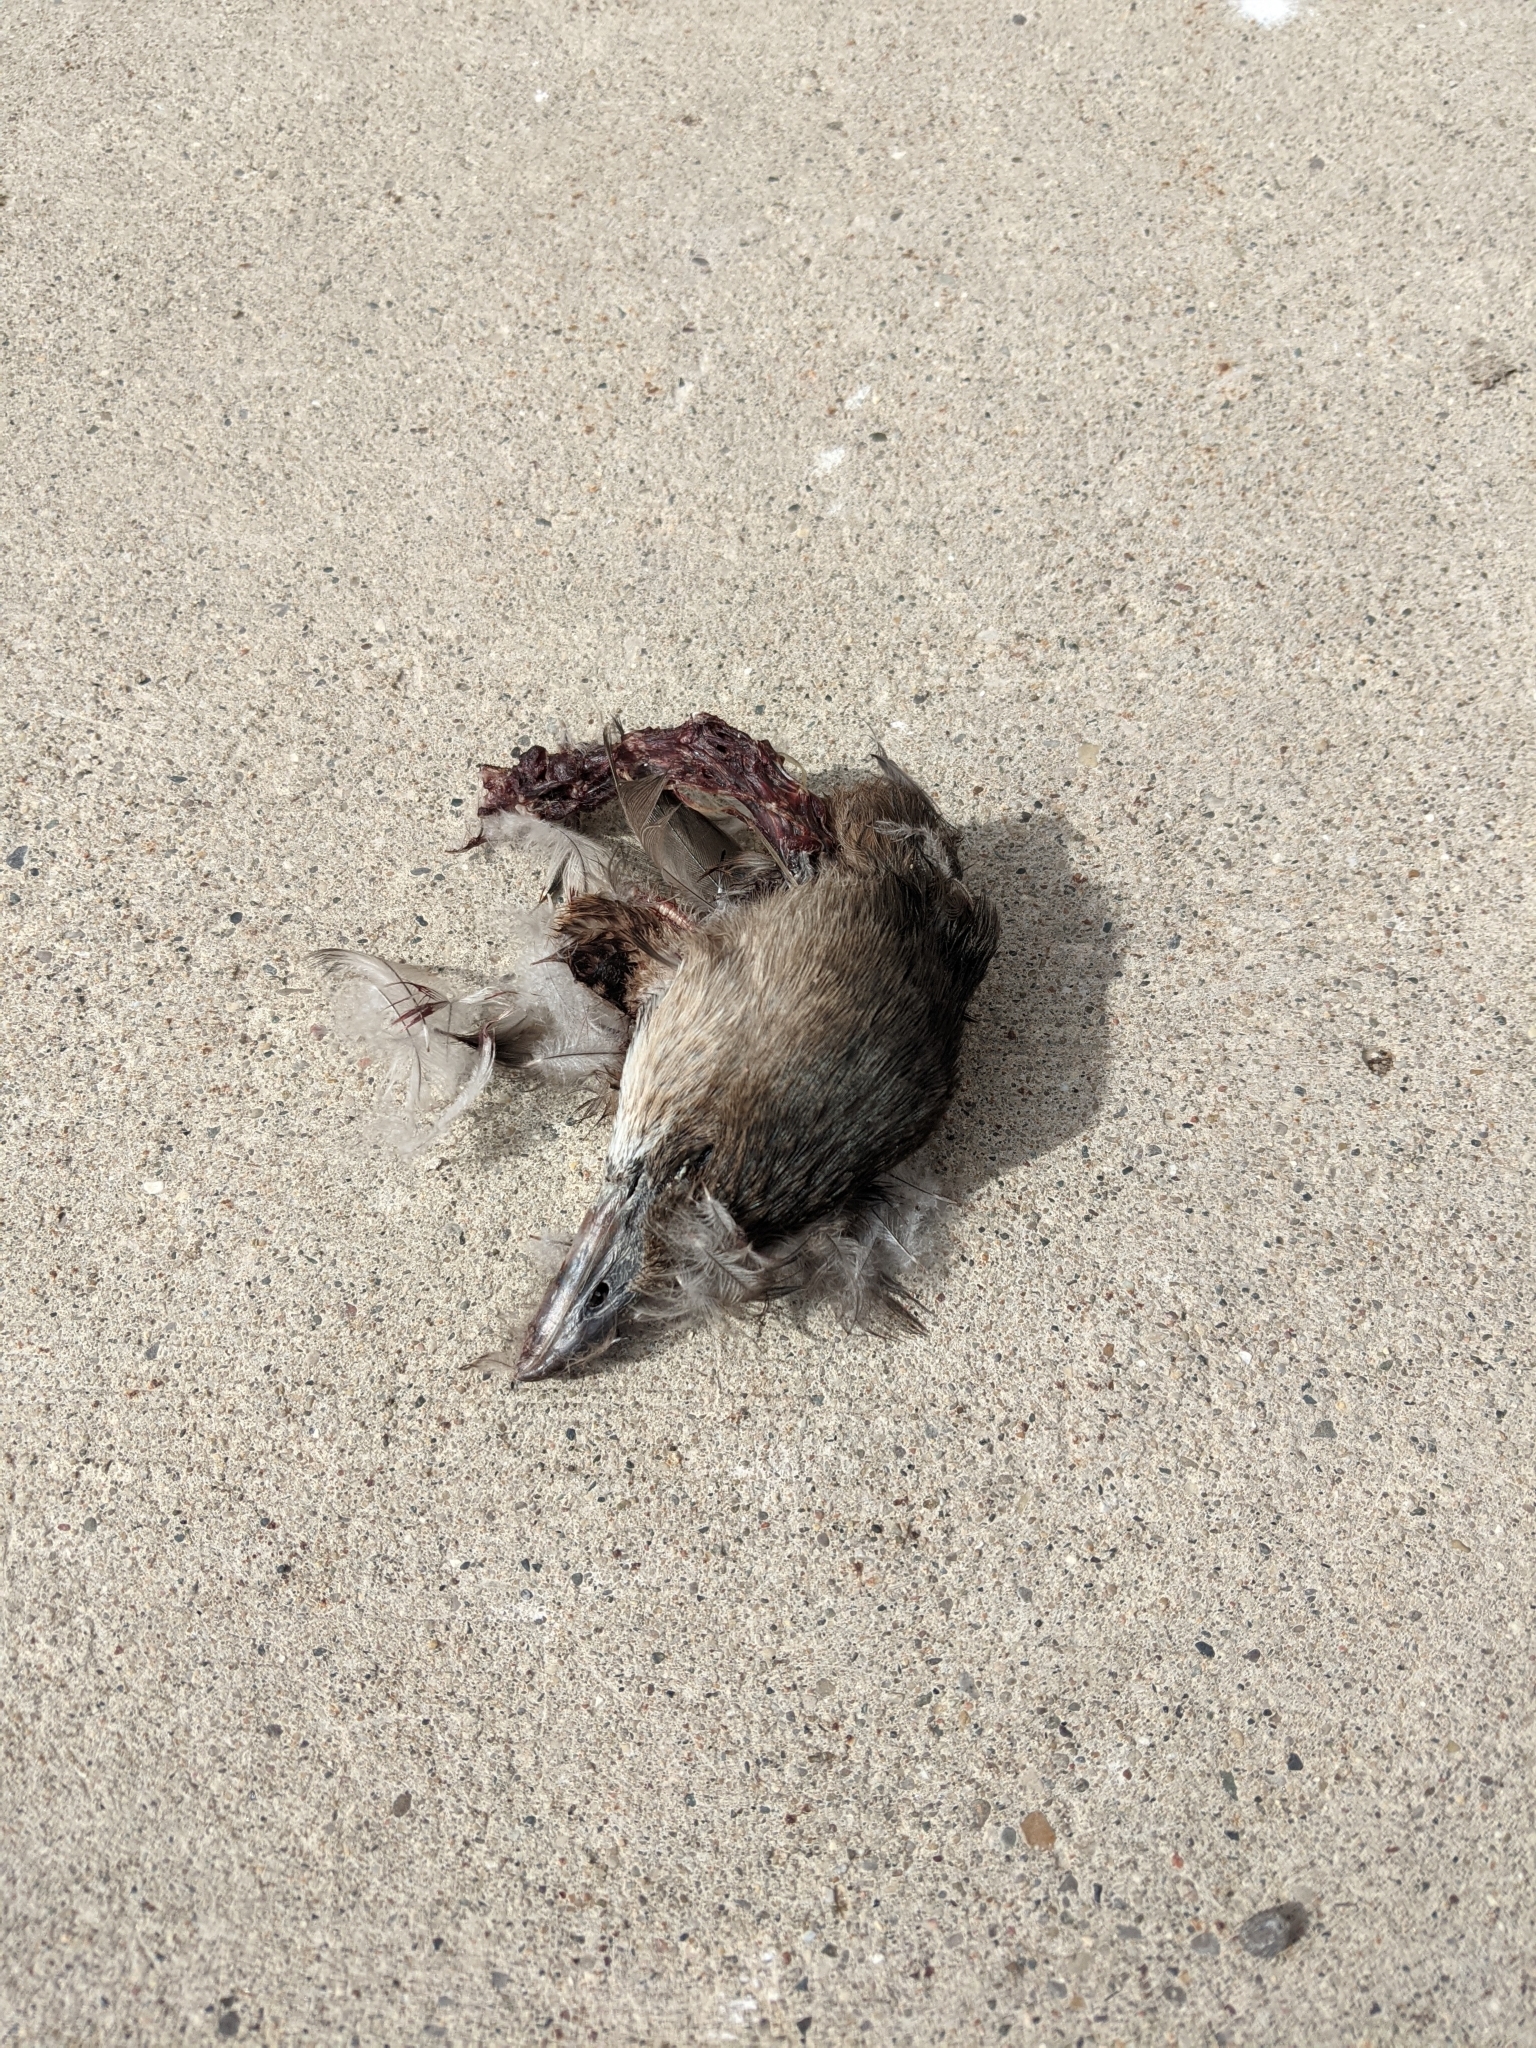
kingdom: Animalia
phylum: Chordata
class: Aves
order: Podicipediformes
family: Podicipedidae
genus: Podilymbus
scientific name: Podilymbus podiceps
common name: Pied-billed grebe
